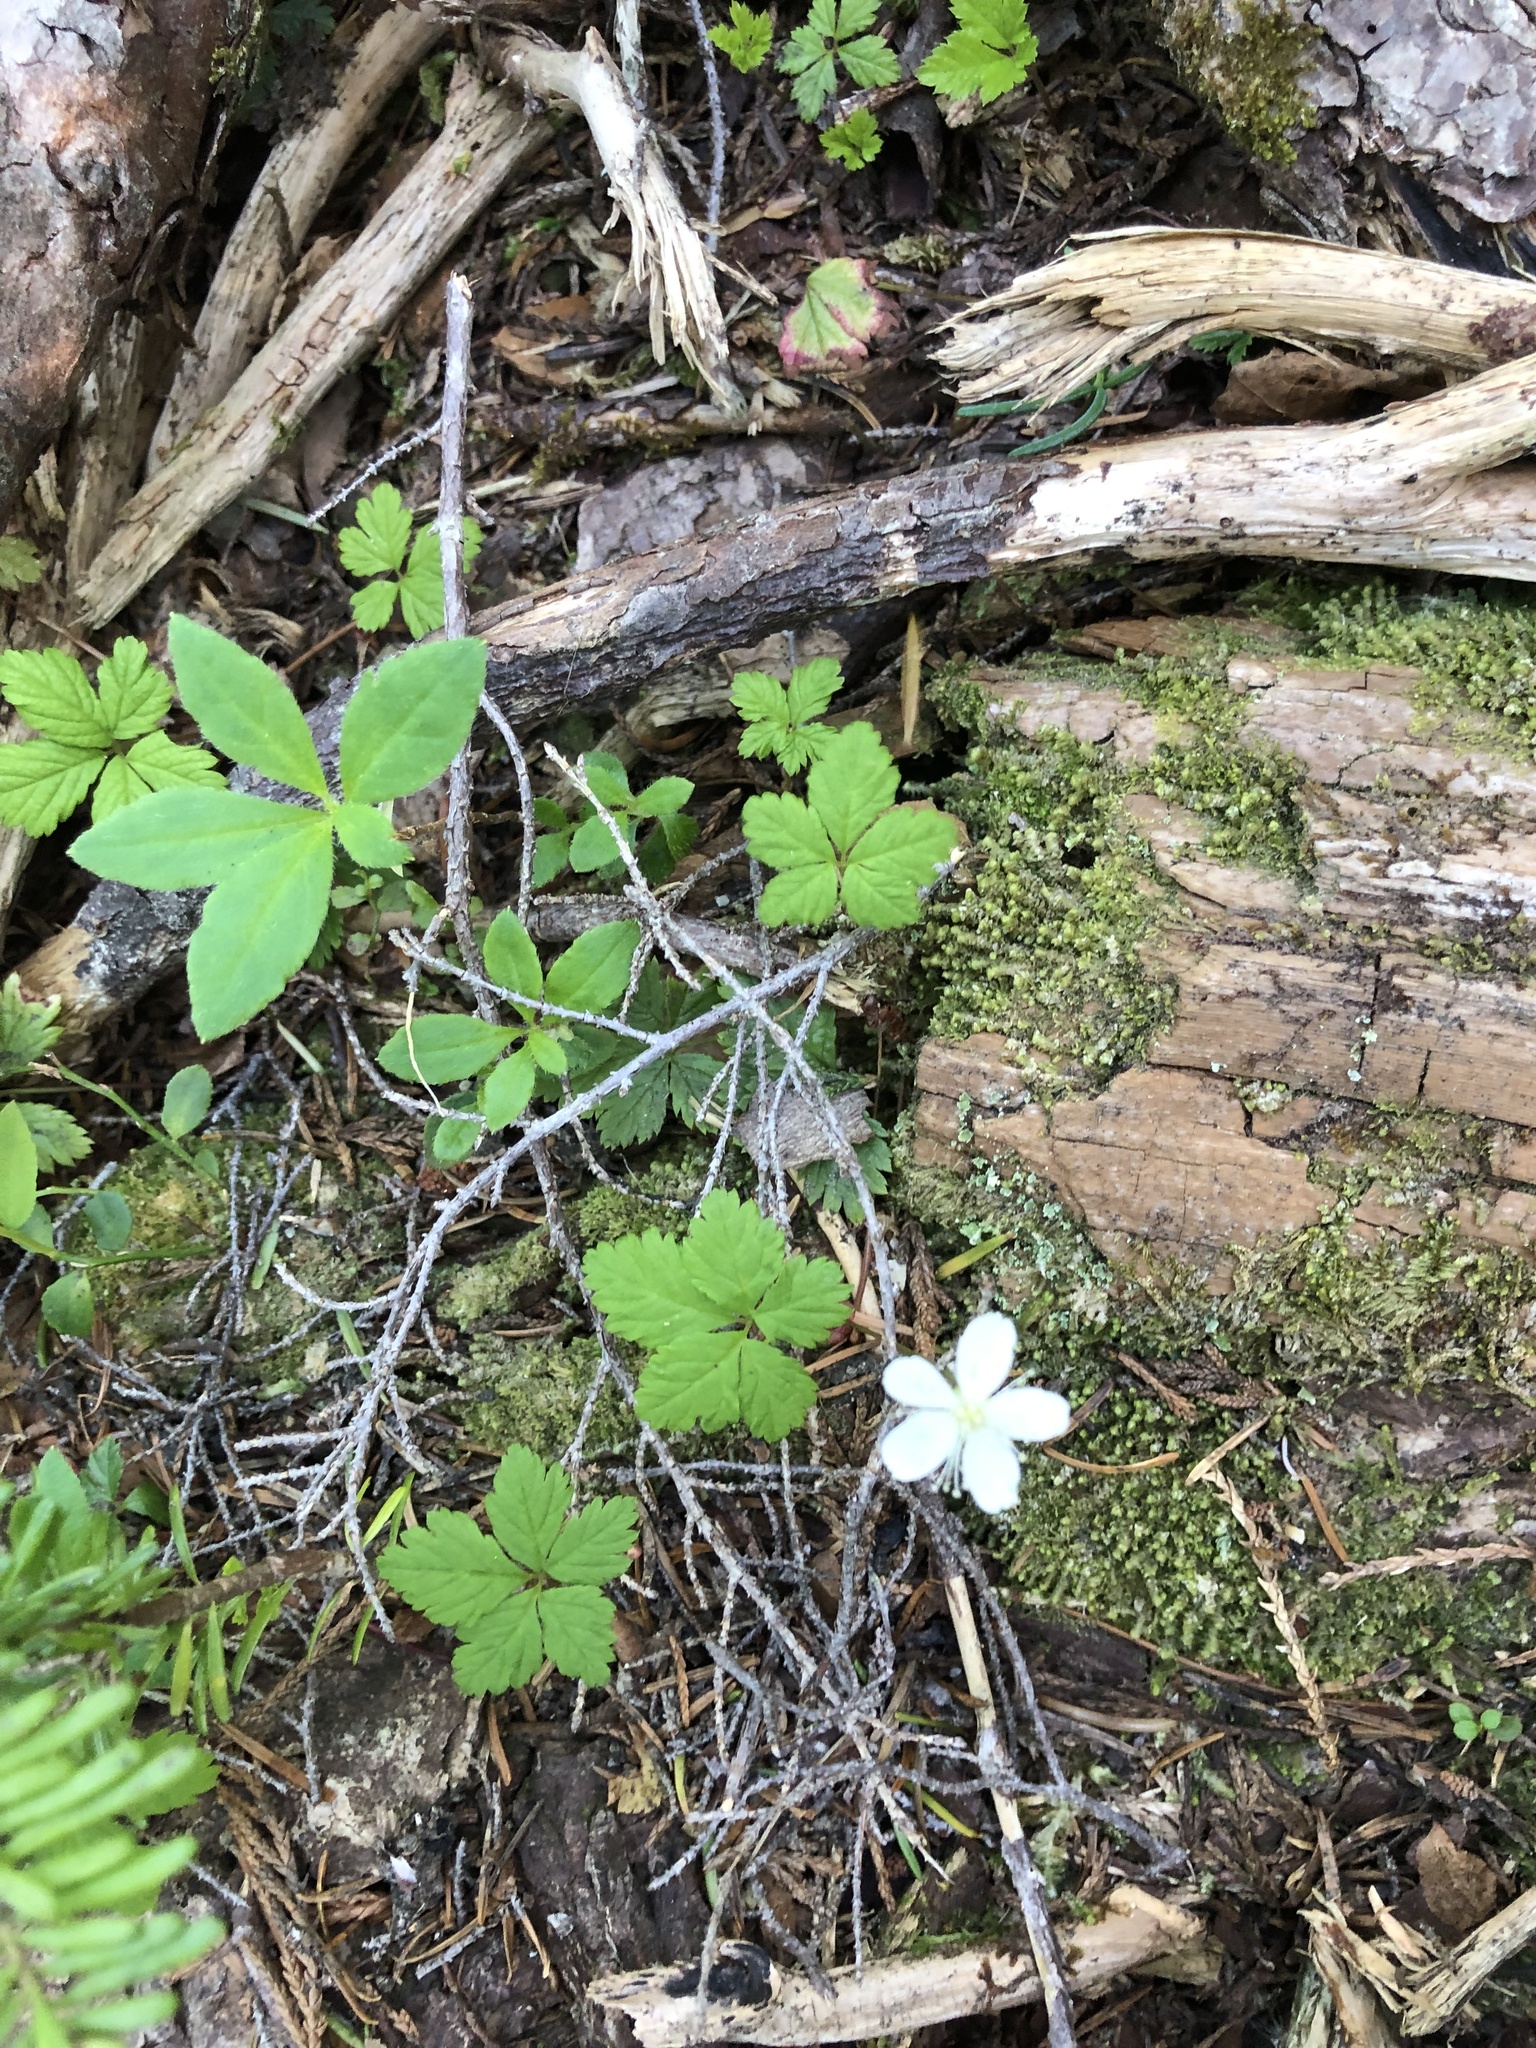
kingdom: Plantae
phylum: Tracheophyta
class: Magnoliopsida
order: Rosales
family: Rosaceae
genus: Rubus
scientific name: Rubus pedatus
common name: Creeping raspberry
